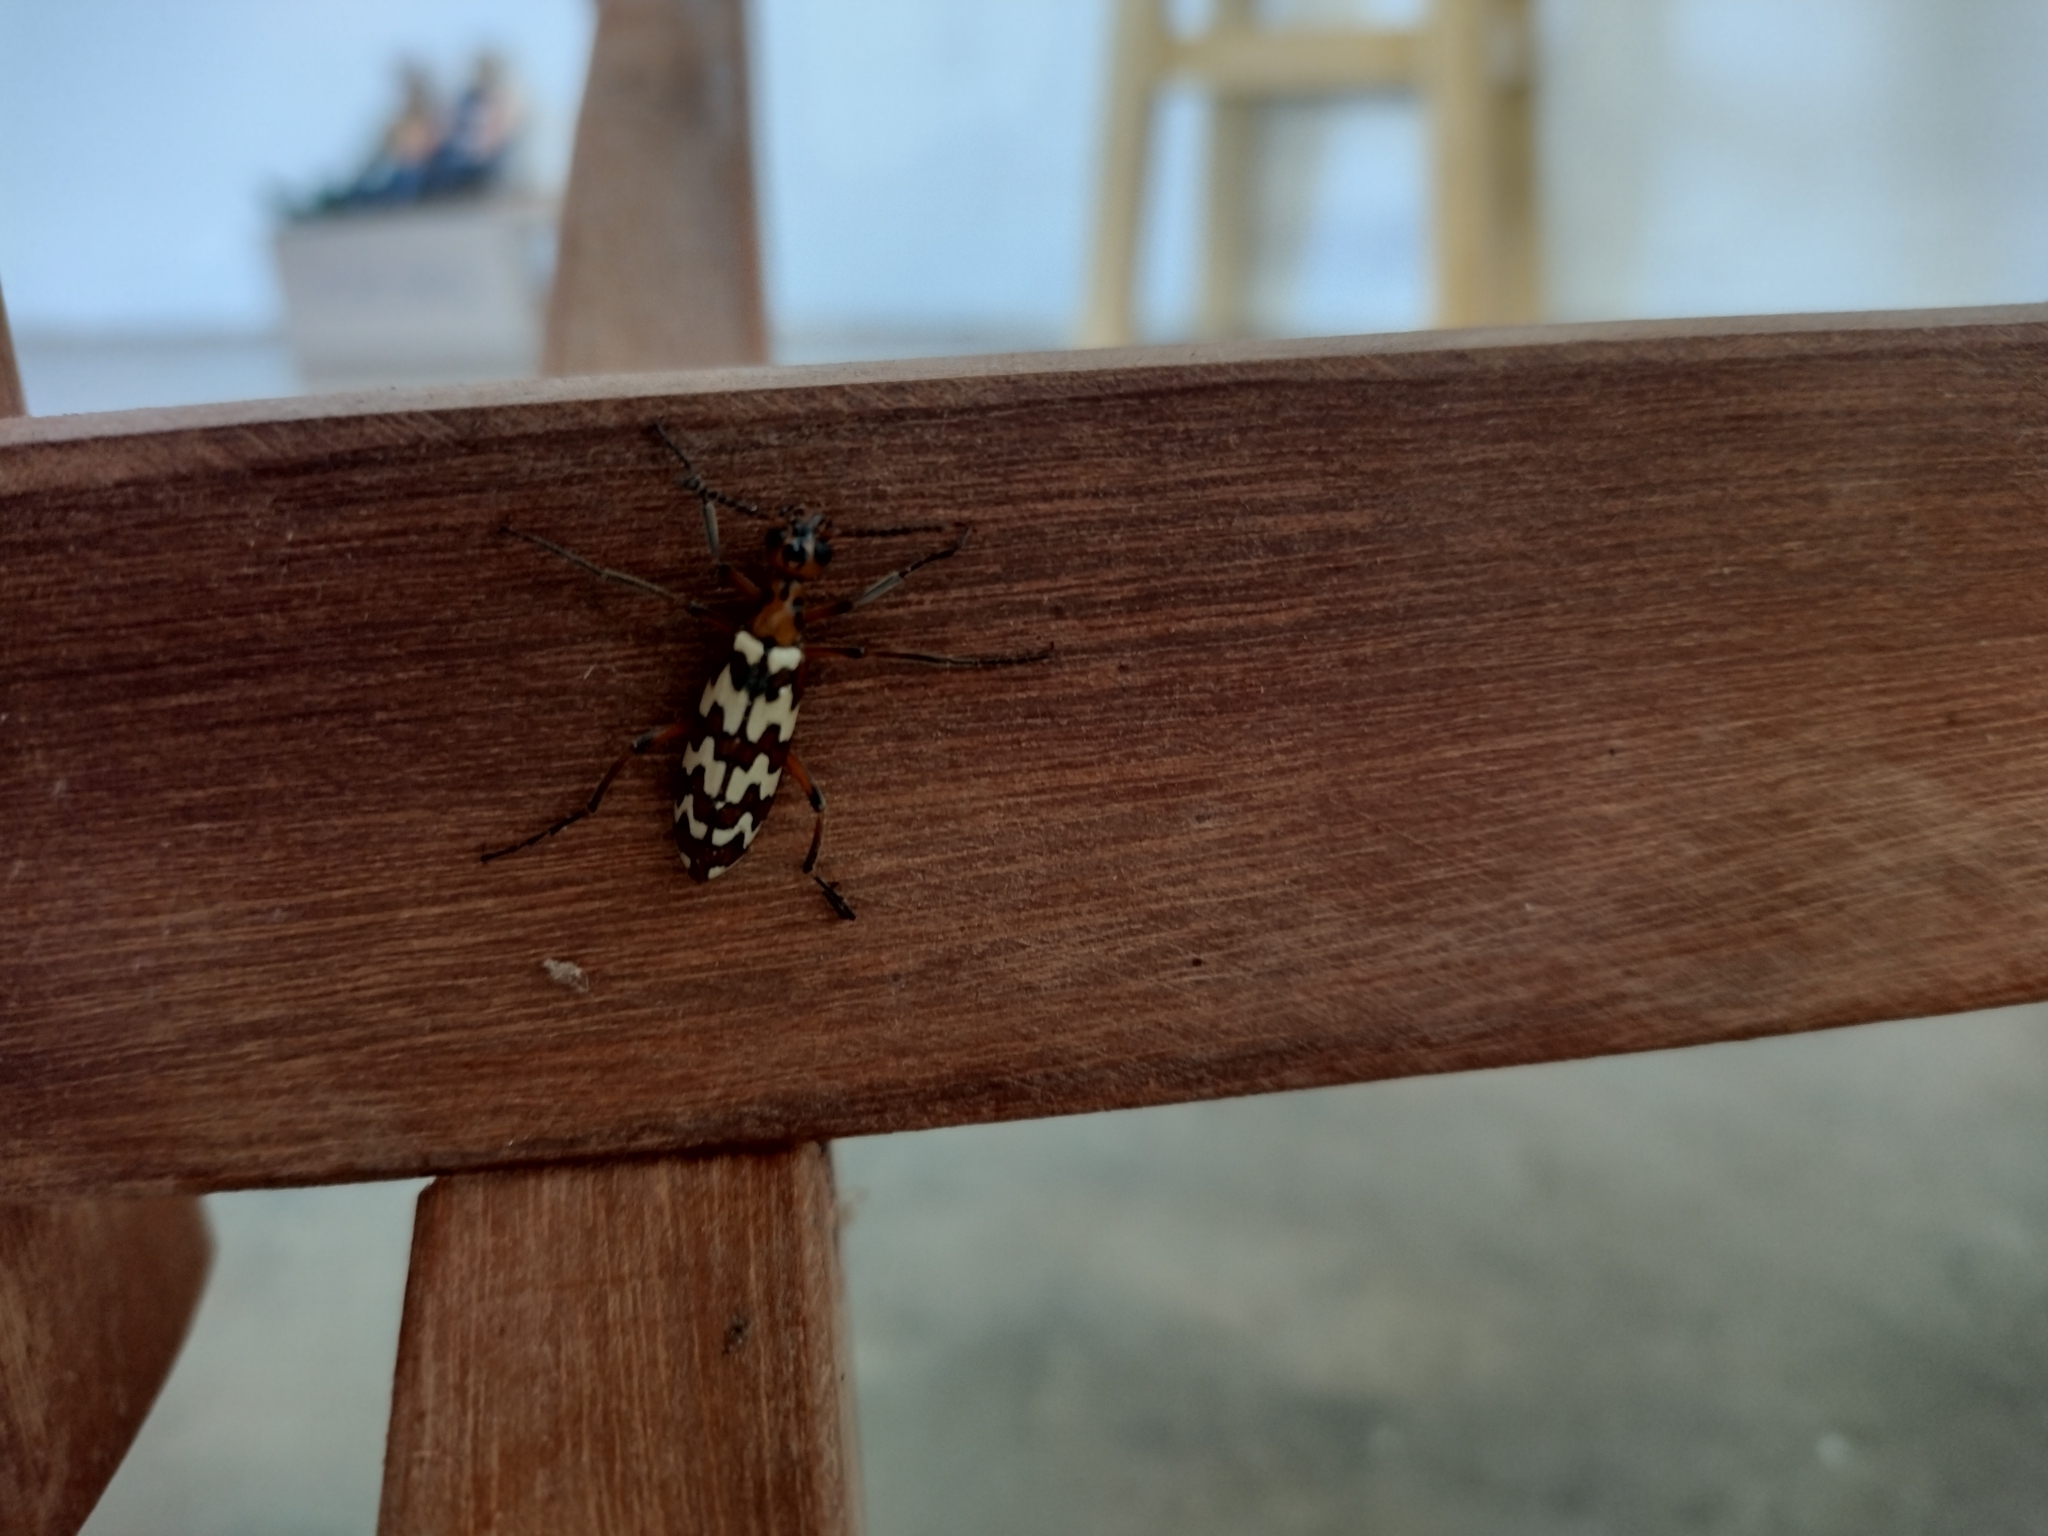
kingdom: Animalia
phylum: Arthropoda
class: Insecta
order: Coleoptera
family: Meloidae
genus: Pyrota
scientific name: Pyrota
